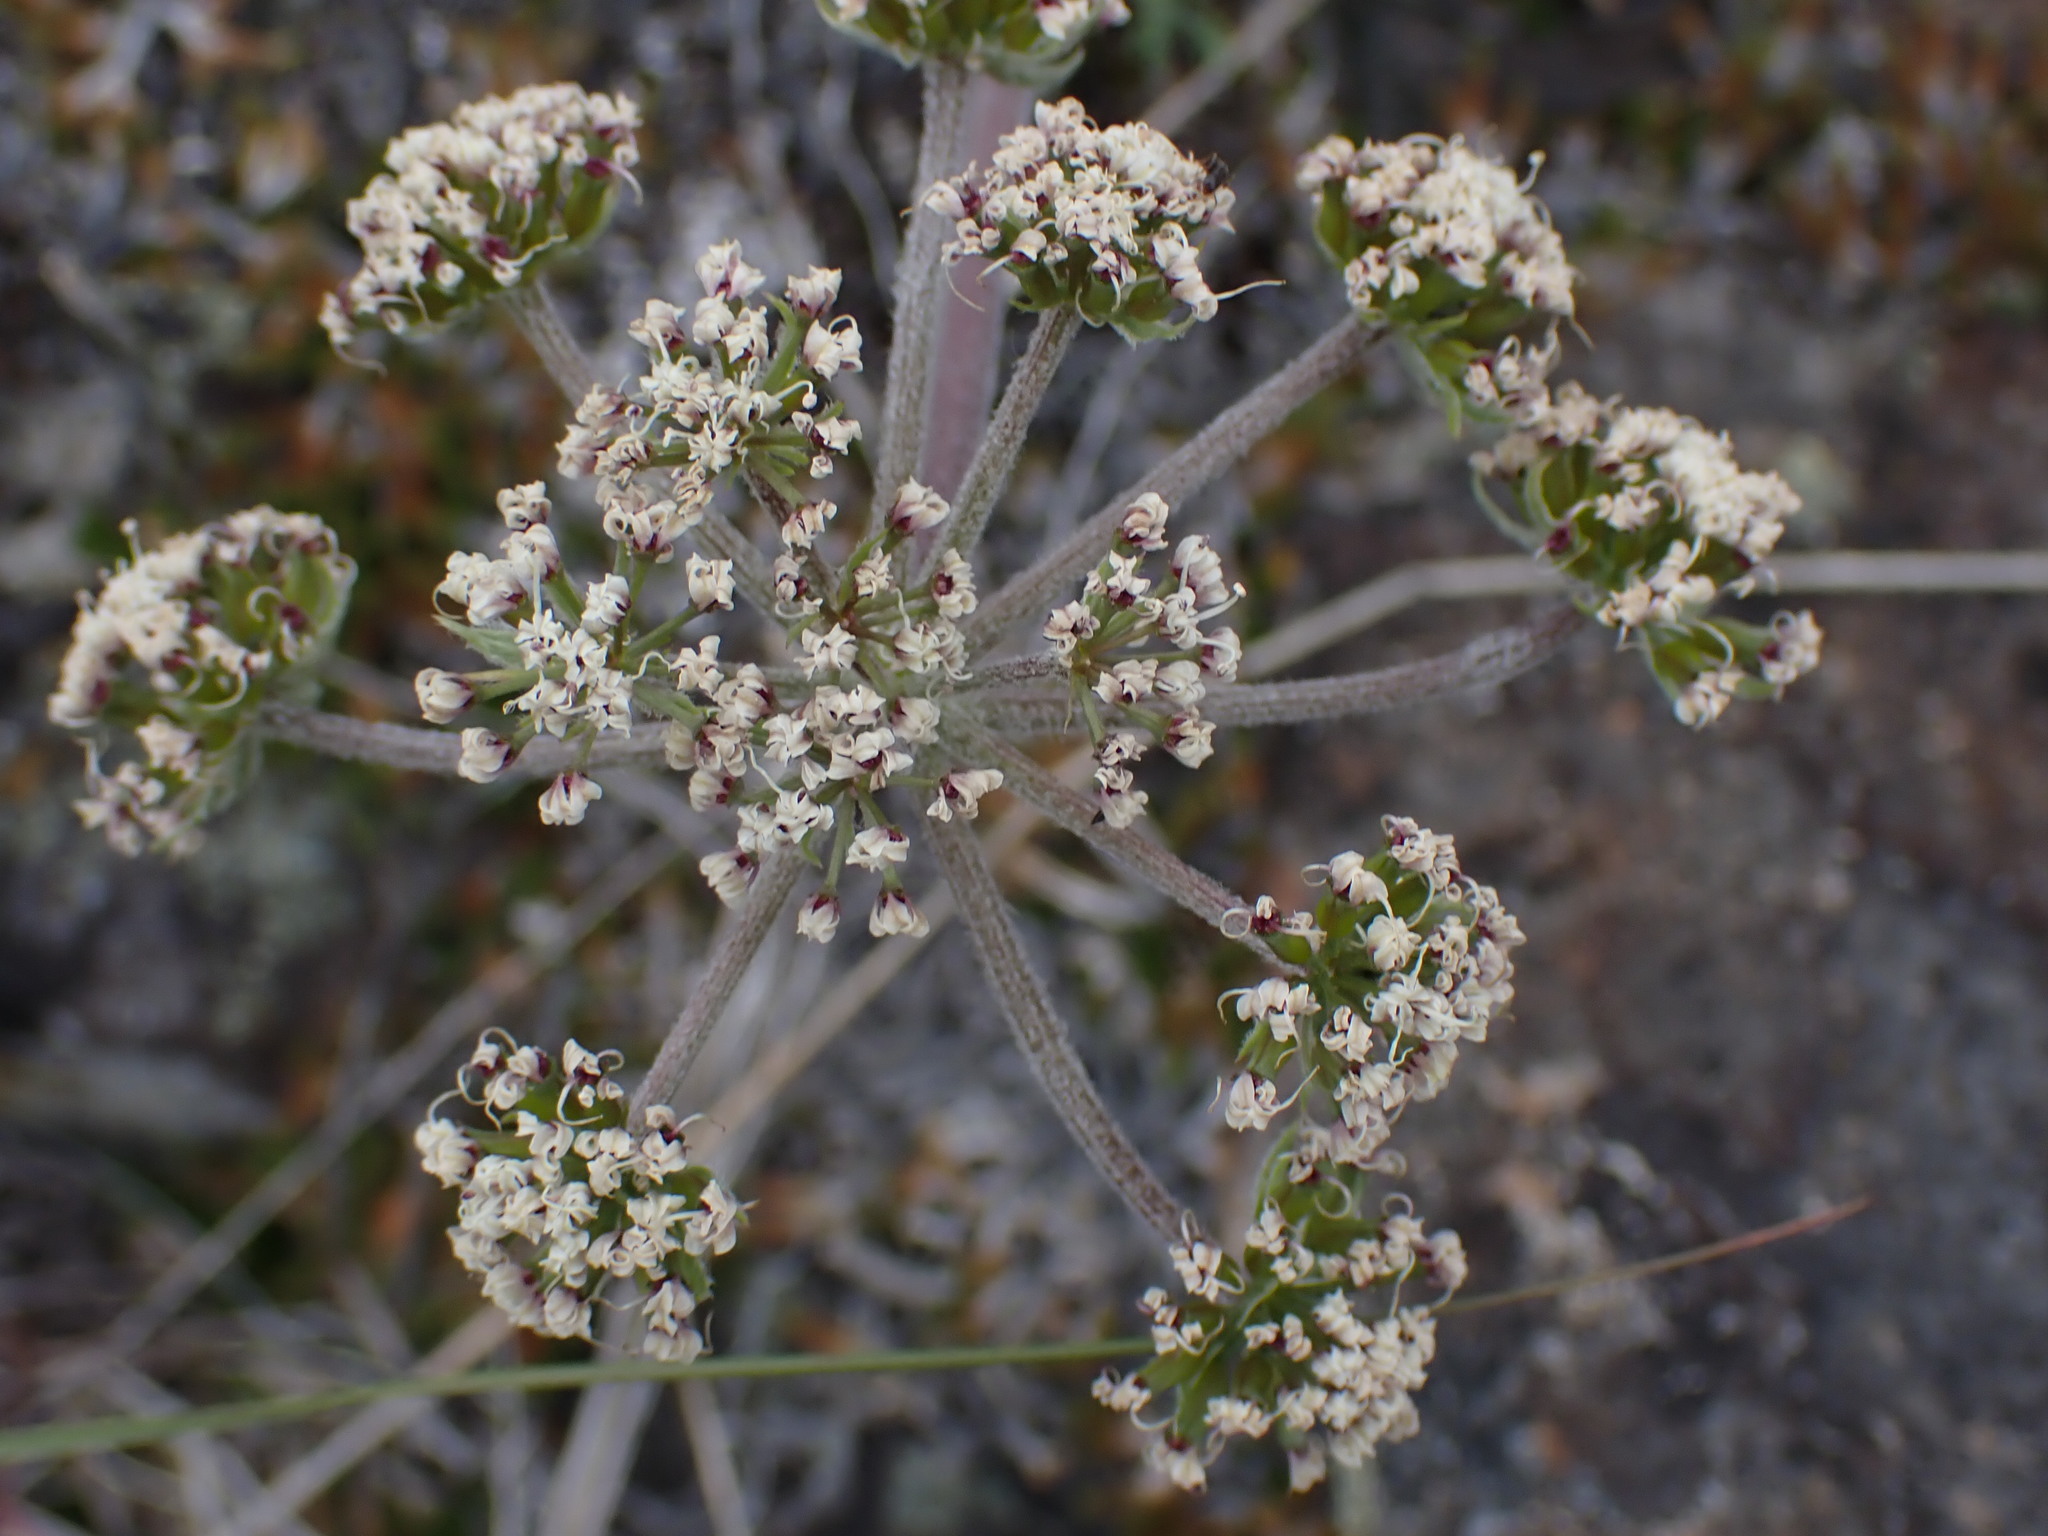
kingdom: Plantae
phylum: Tracheophyta
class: Magnoliopsida
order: Apiales
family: Apiaceae
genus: Lomatium
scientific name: Lomatium macrocarpum
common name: Big-seed biscuitroot
